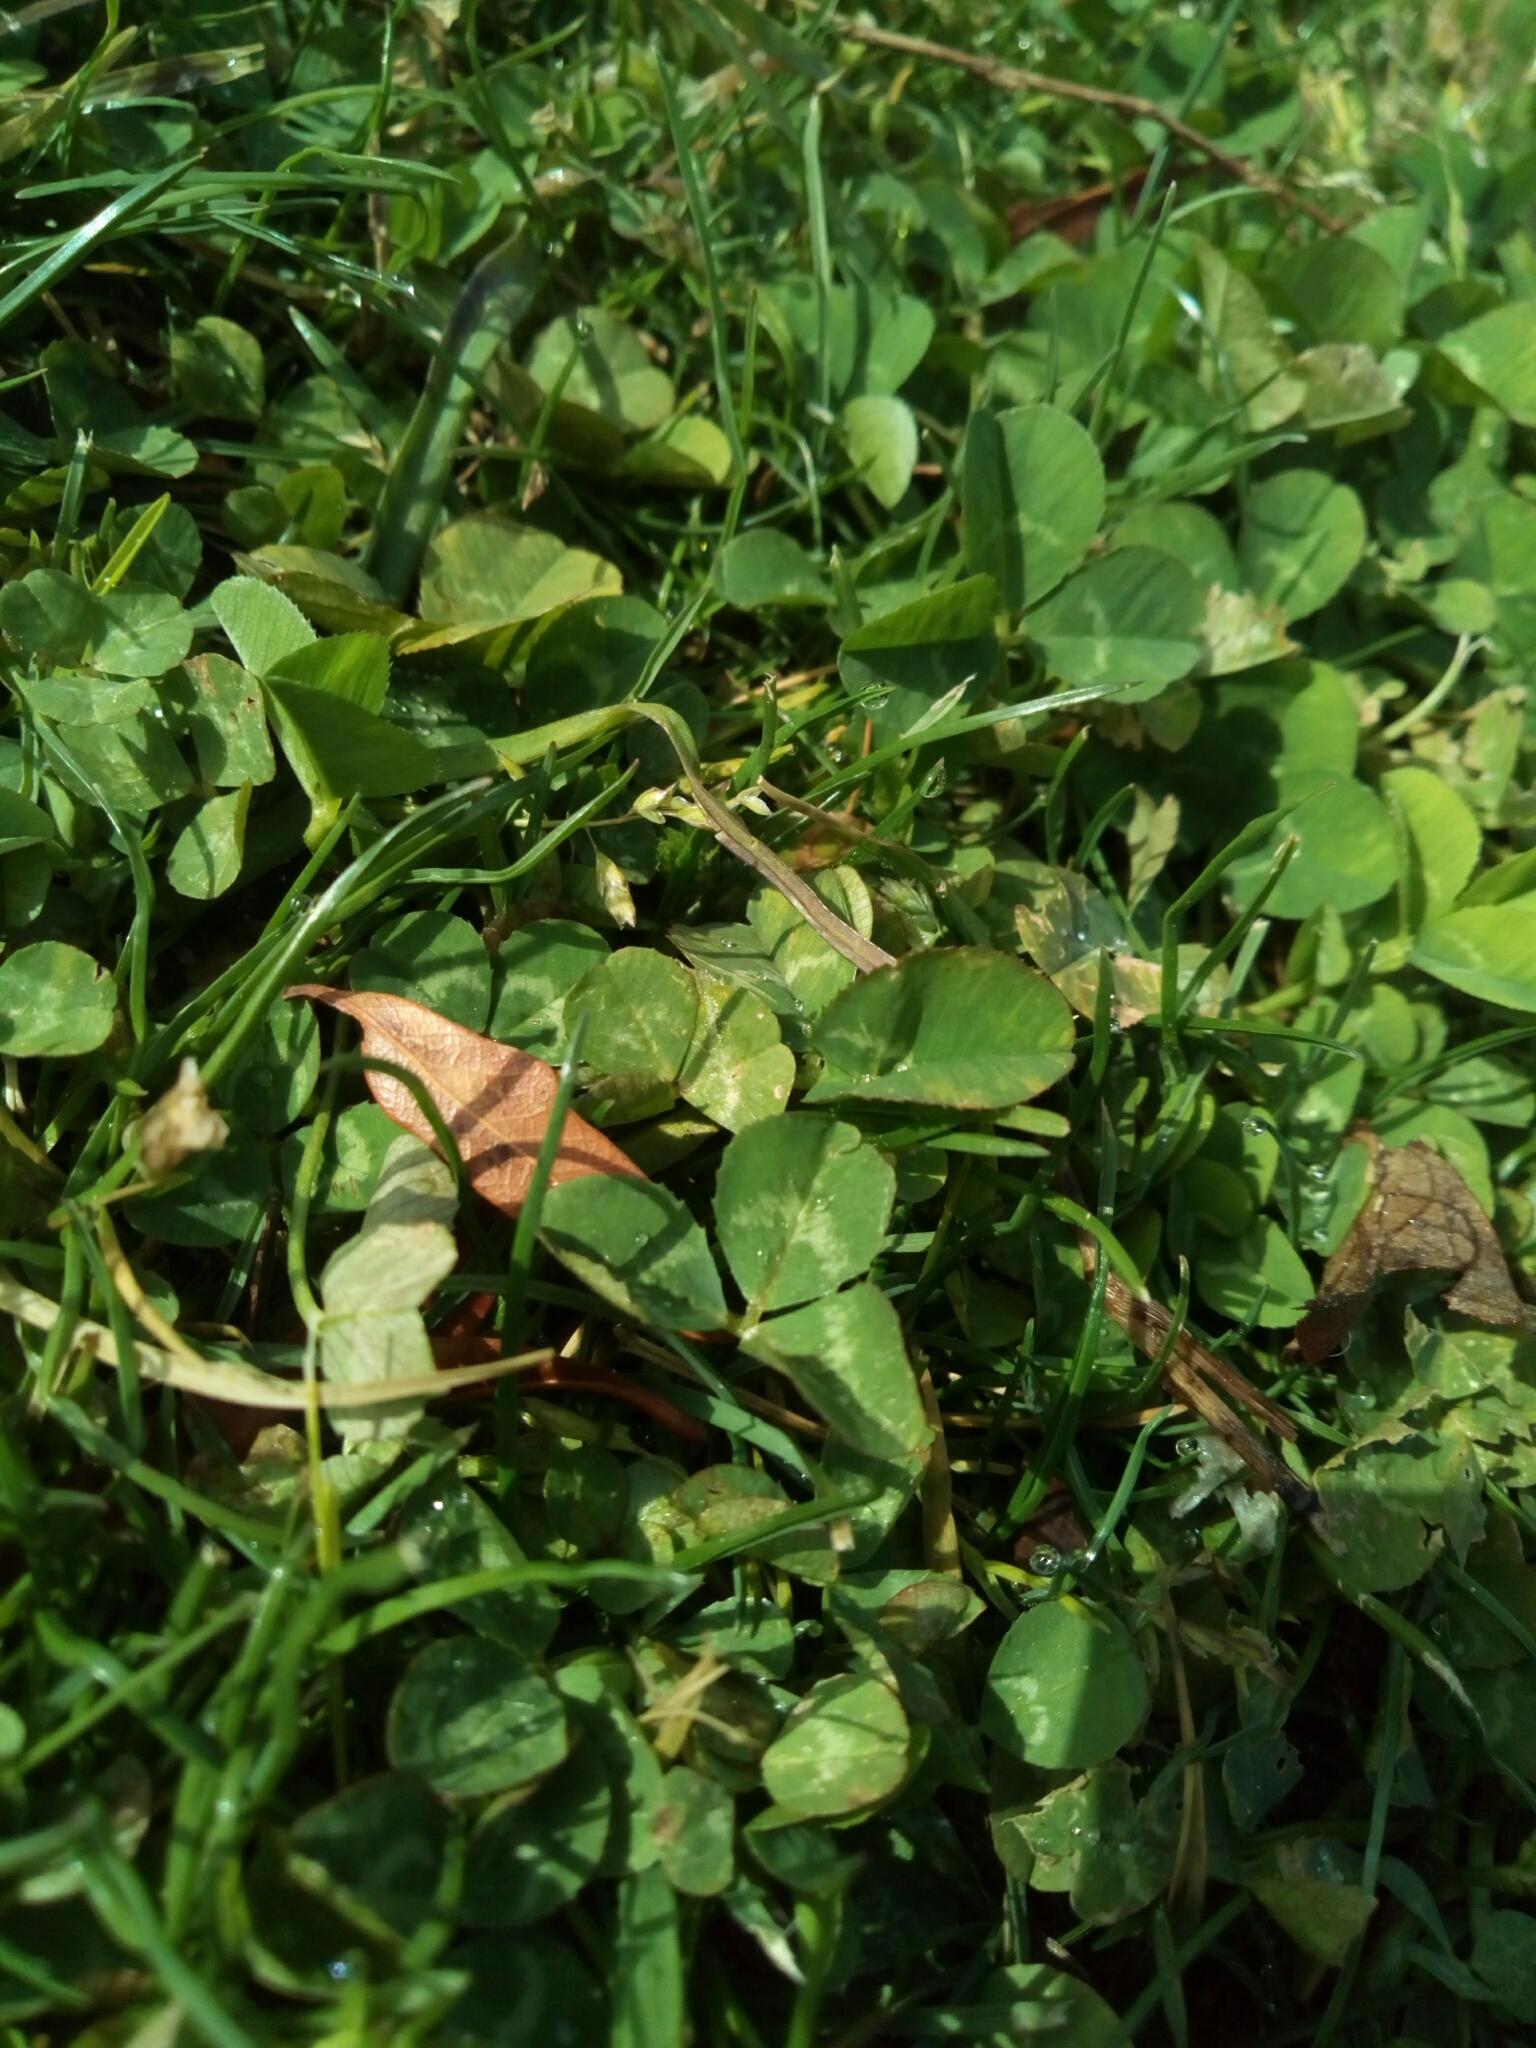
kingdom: Plantae
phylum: Tracheophyta
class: Magnoliopsida
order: Fabales
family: Fabaceae
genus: Trifolium
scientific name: Trifolium repens
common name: White clover
